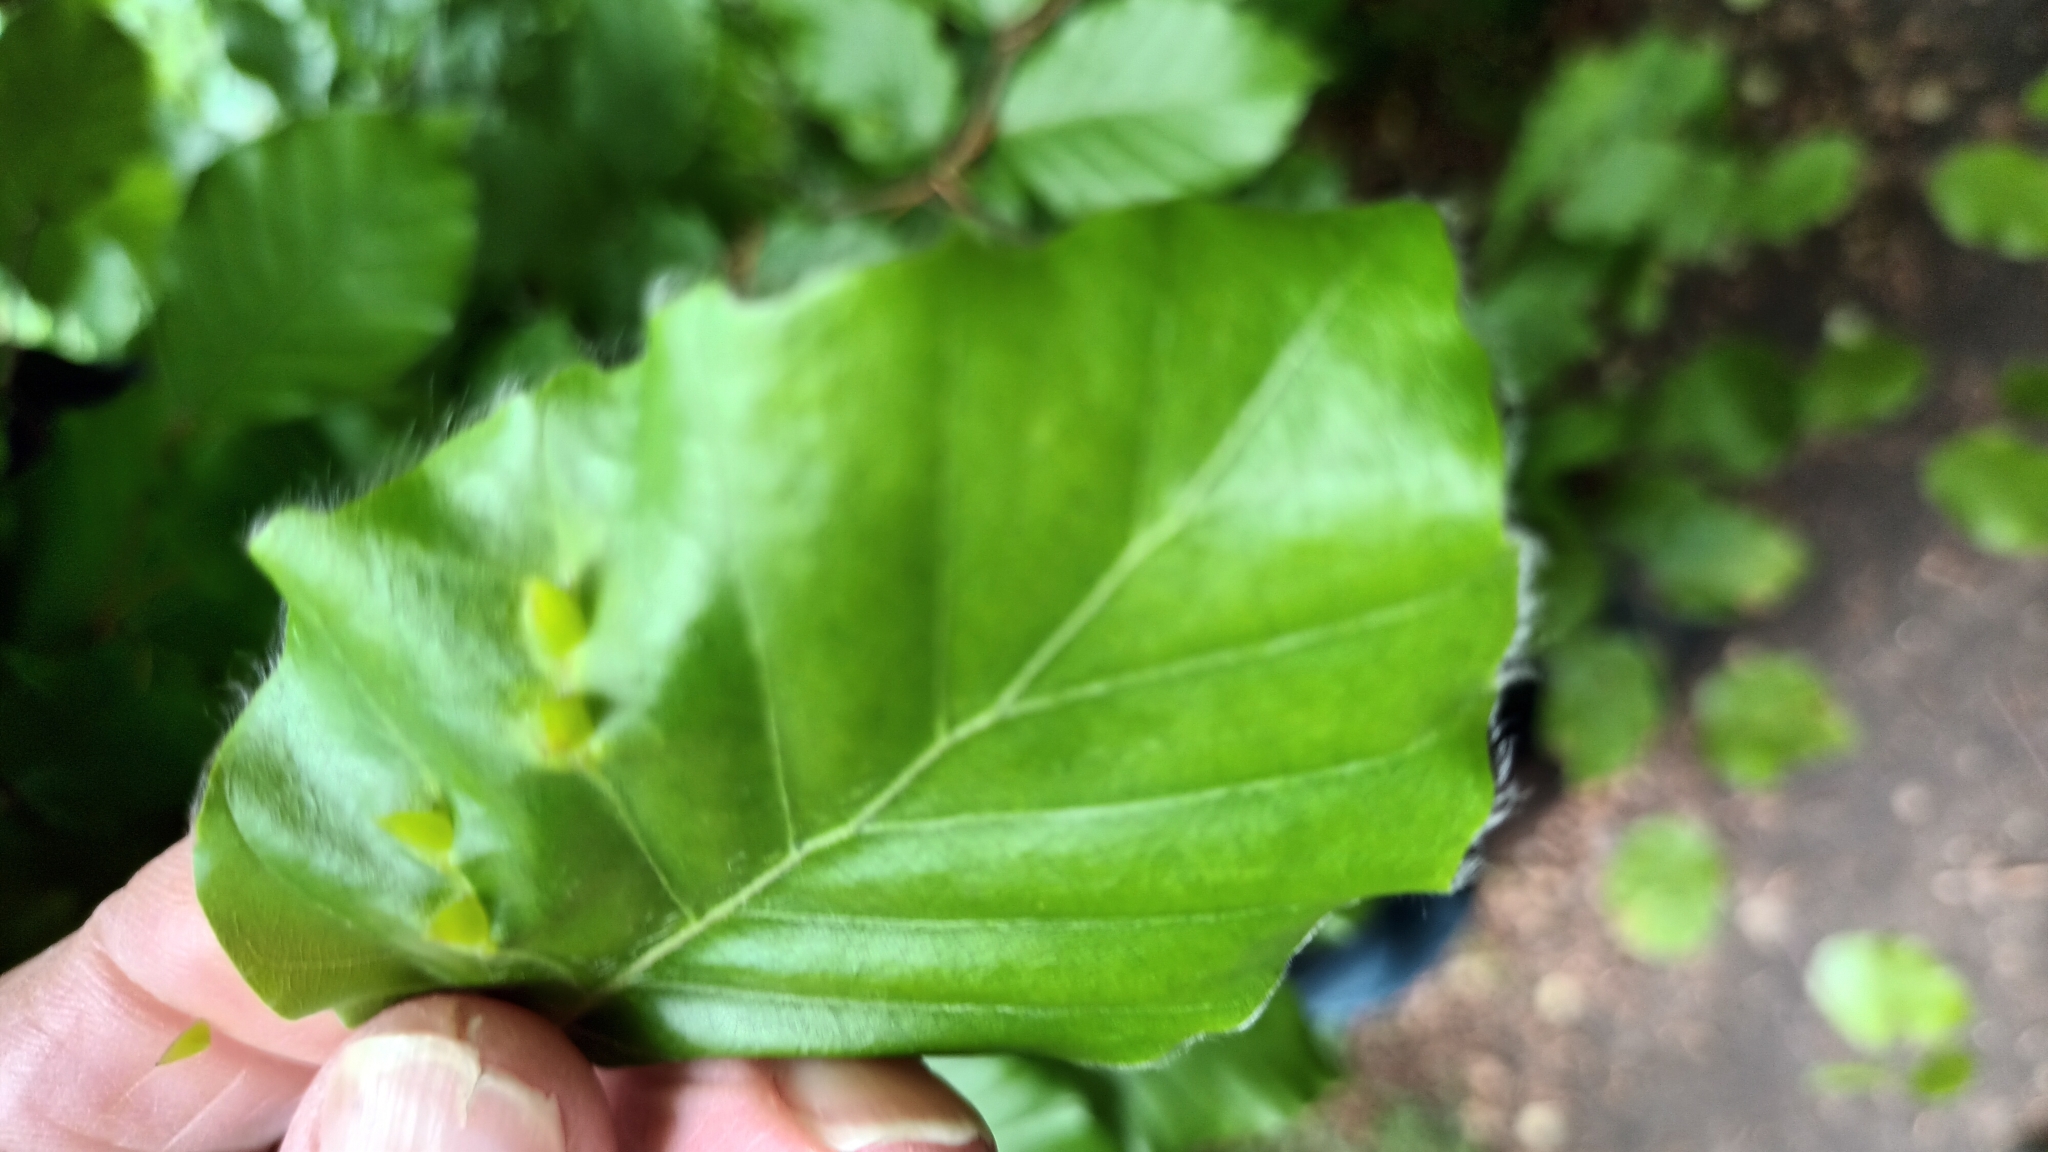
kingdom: Animalia
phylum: Arthropoda
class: Insecta
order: Diptera
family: Cecidomyiidae
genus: Mikiola
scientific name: Mikiola fagi
